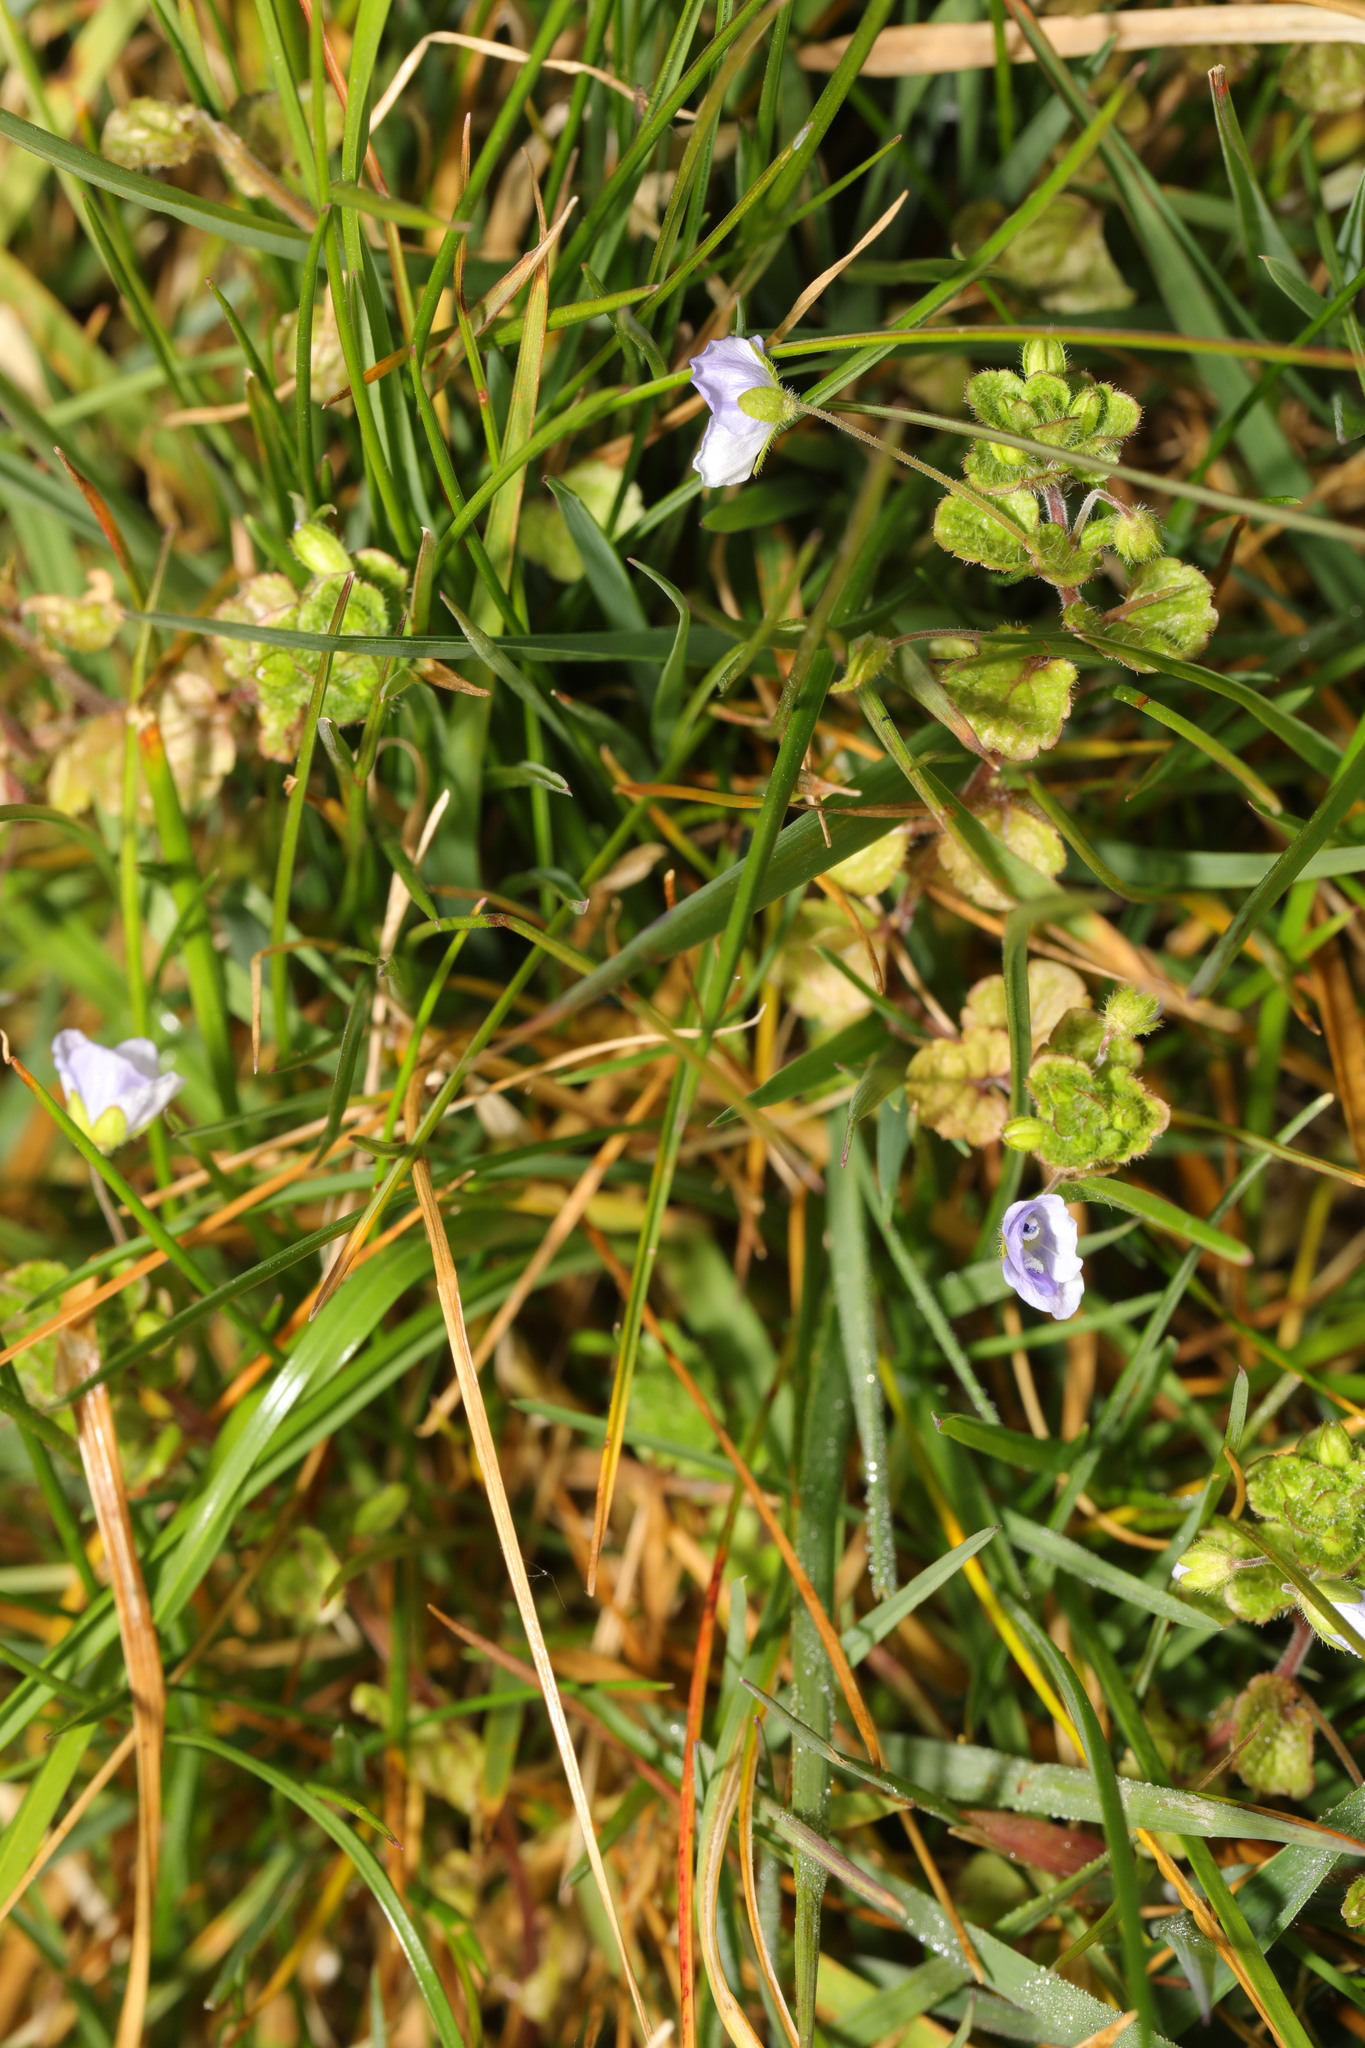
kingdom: Plantae
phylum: Tracheophyta
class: Magnoliopsida
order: Lamiales
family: Plantaginaceae
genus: Veronica
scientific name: Veronica persica
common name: Common field-speedwell
